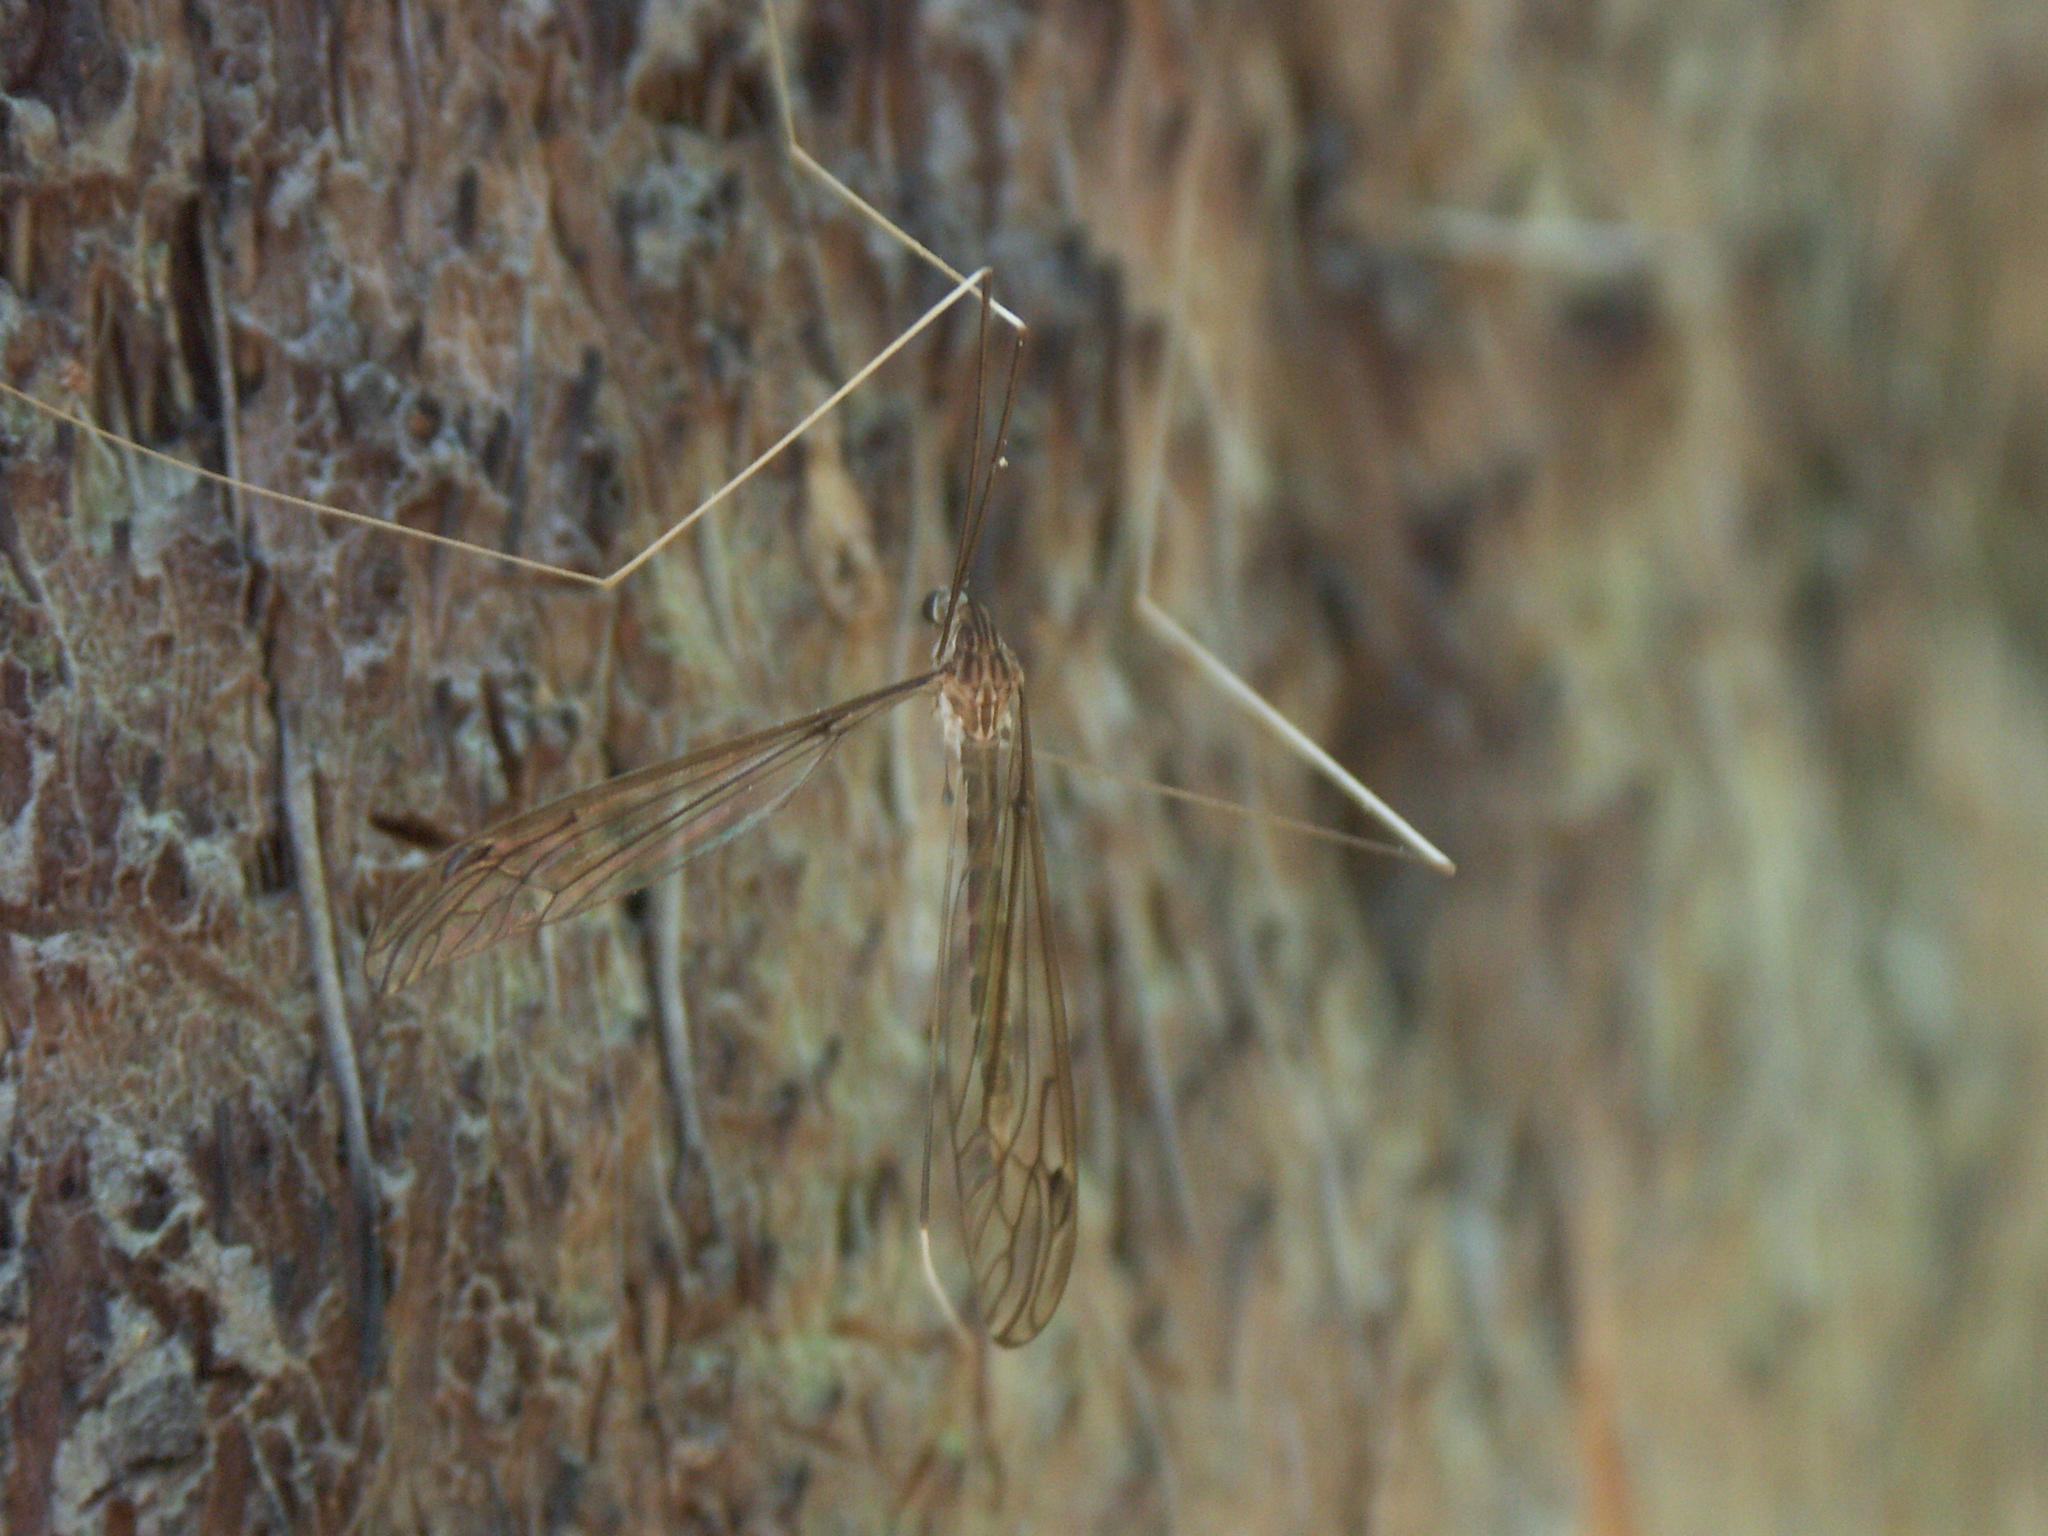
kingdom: Animalia
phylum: Arthropoda
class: Insecta
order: Diptera
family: Tipulidae
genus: Brachypremna
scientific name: Brachypremna dispellens
